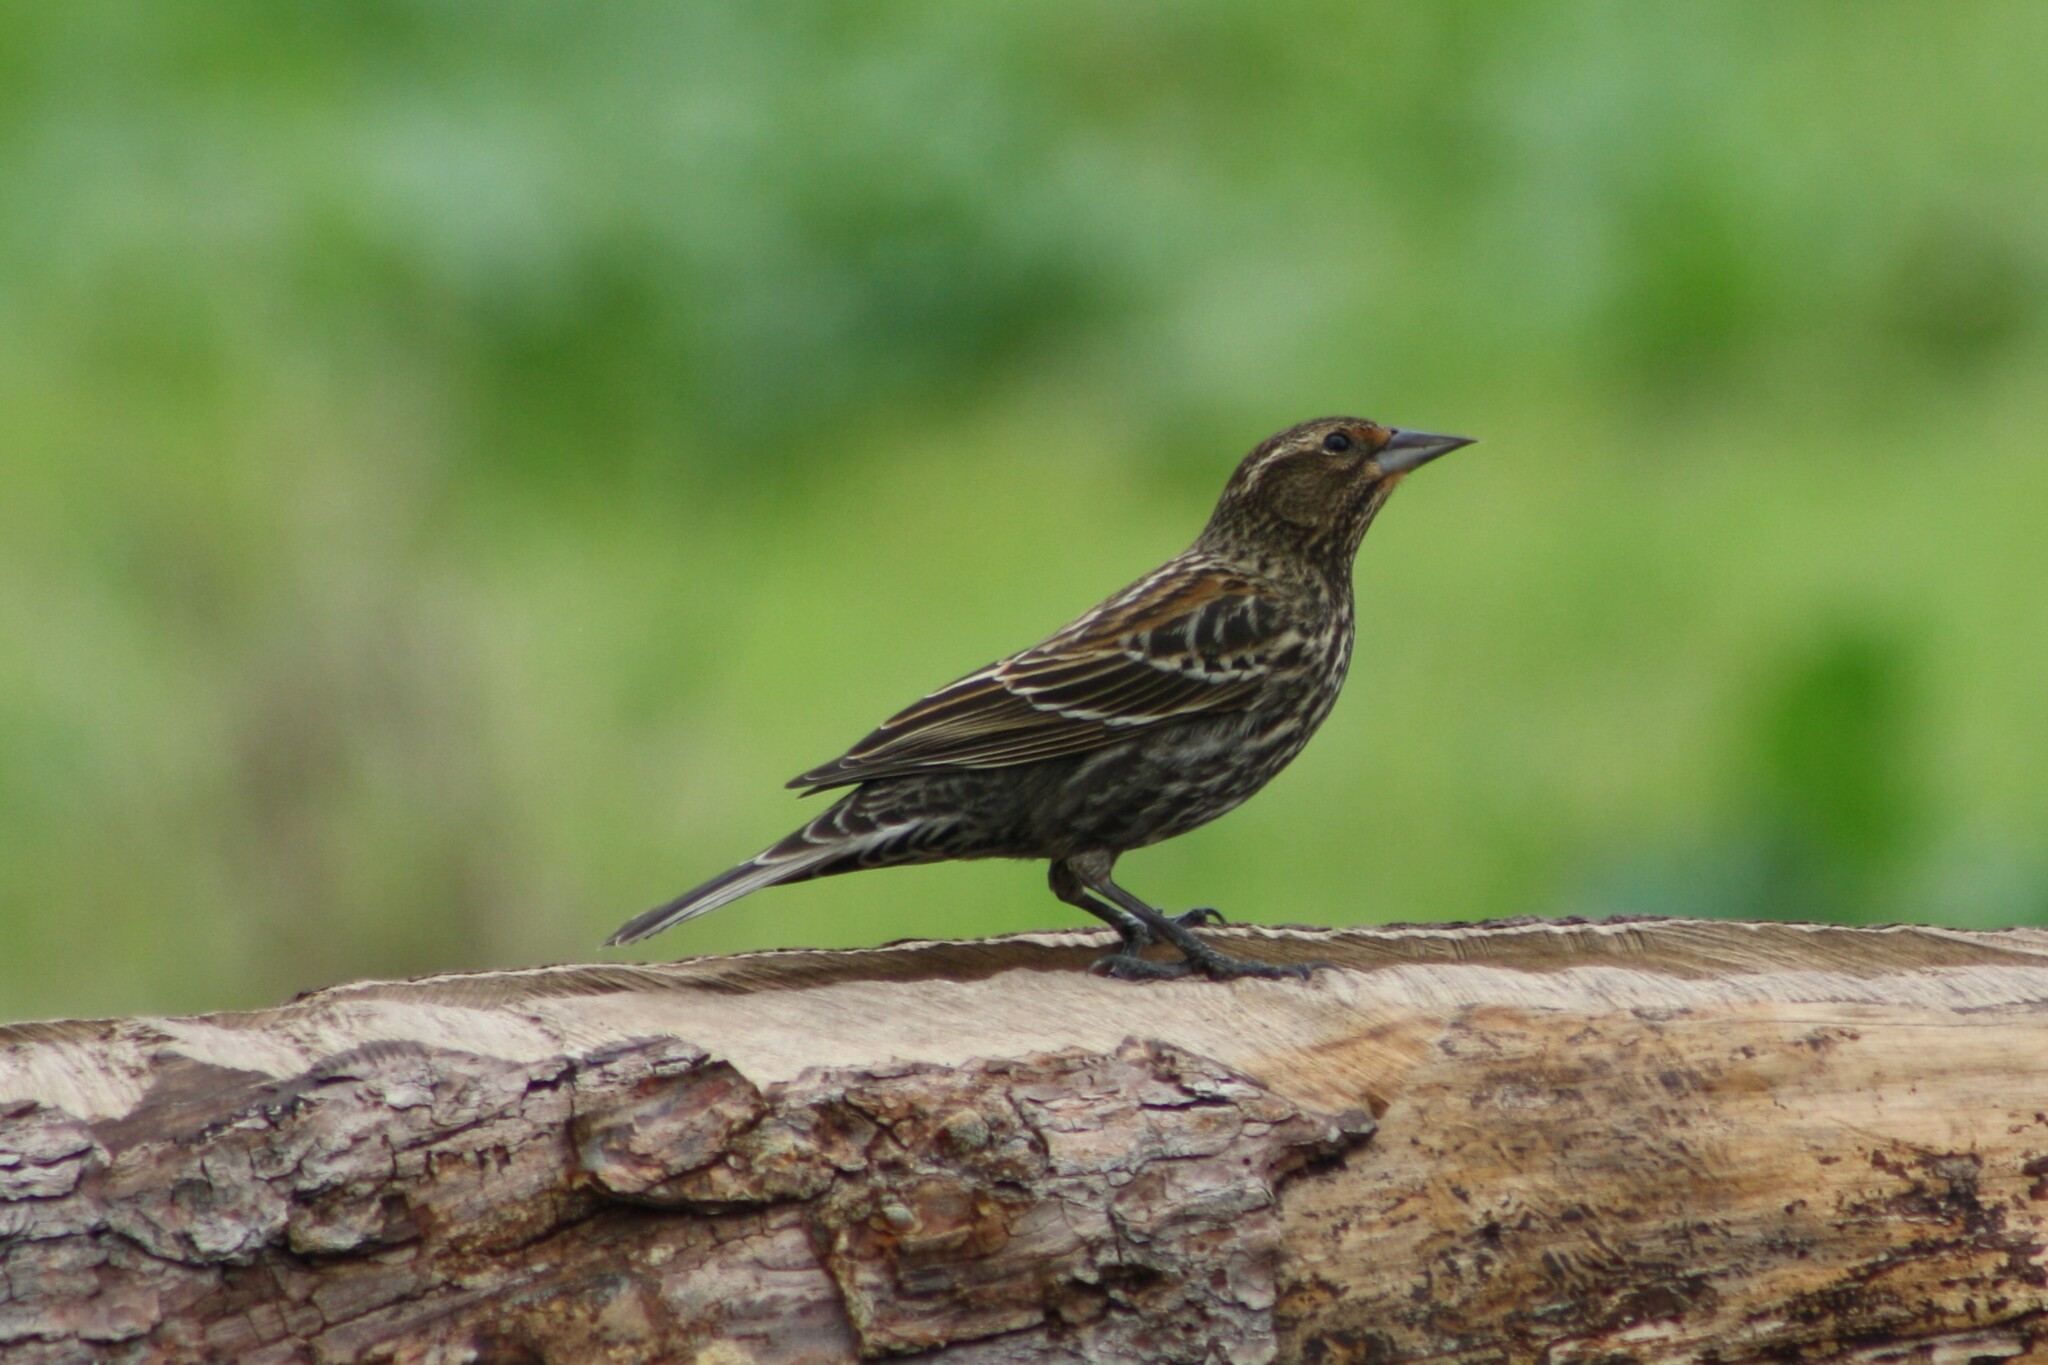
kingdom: Animalia
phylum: Chordata
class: Aves
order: Passeriformes
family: Icteridae
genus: Agelaius
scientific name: Agelaius phoeniceus
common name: Red-winged blackbird
